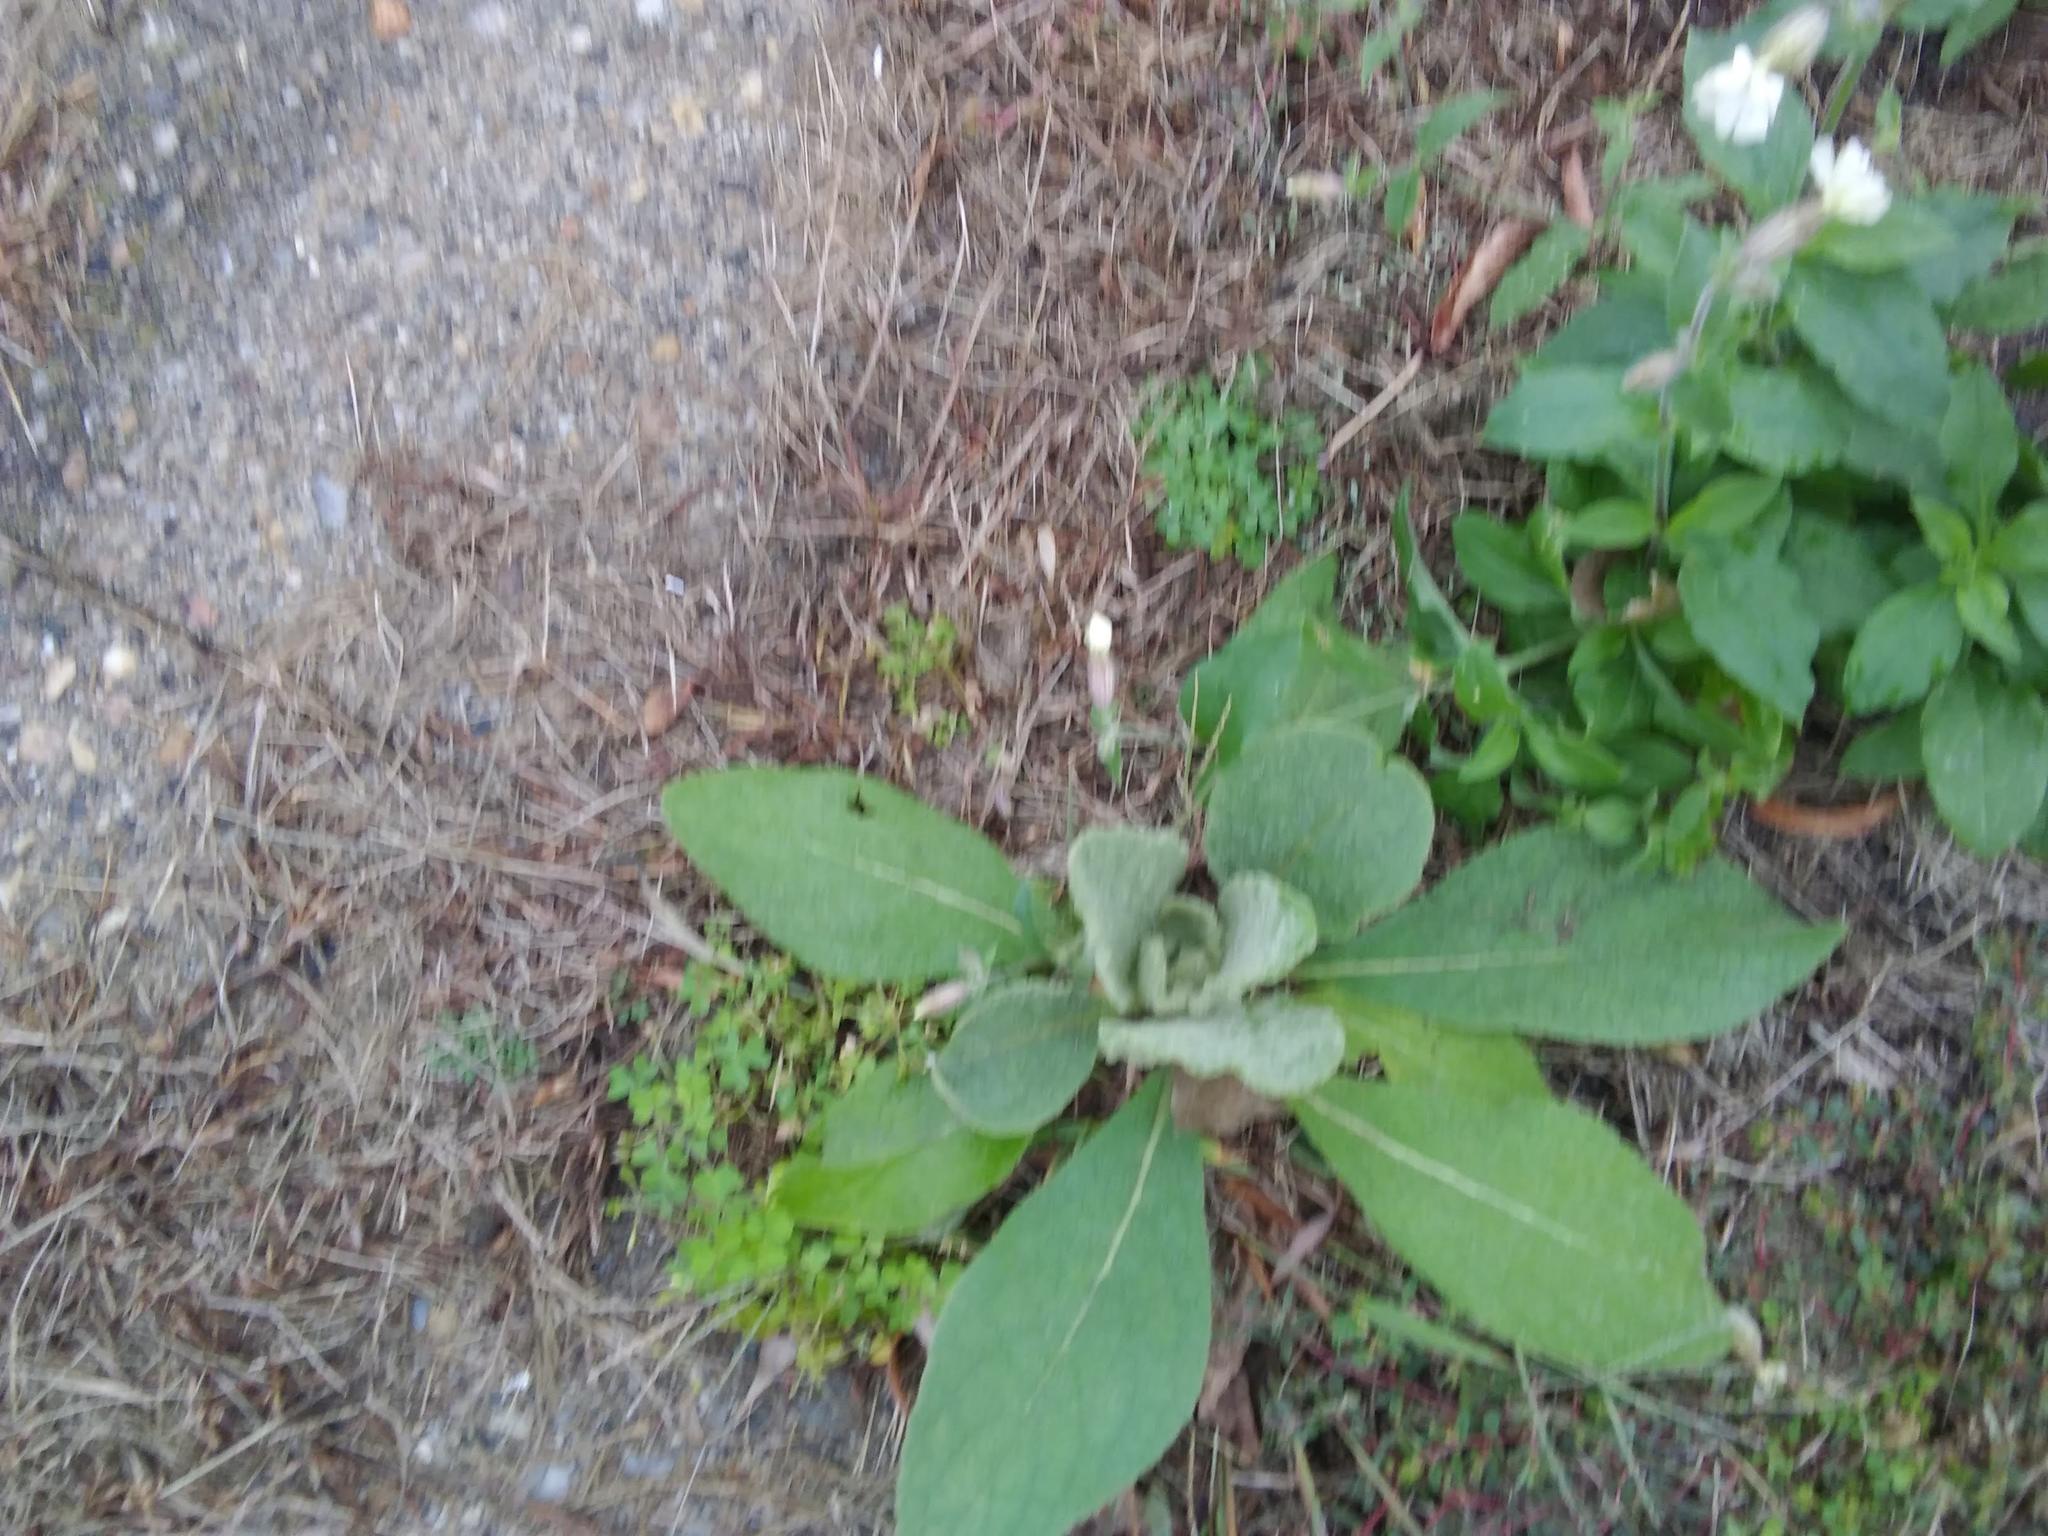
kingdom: Plantae
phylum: Tracheophyta
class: Magnoliopsida
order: Lamiales
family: Scrophulariaceae
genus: Verbascum
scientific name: Verbascum thapsus
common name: Common mullein
